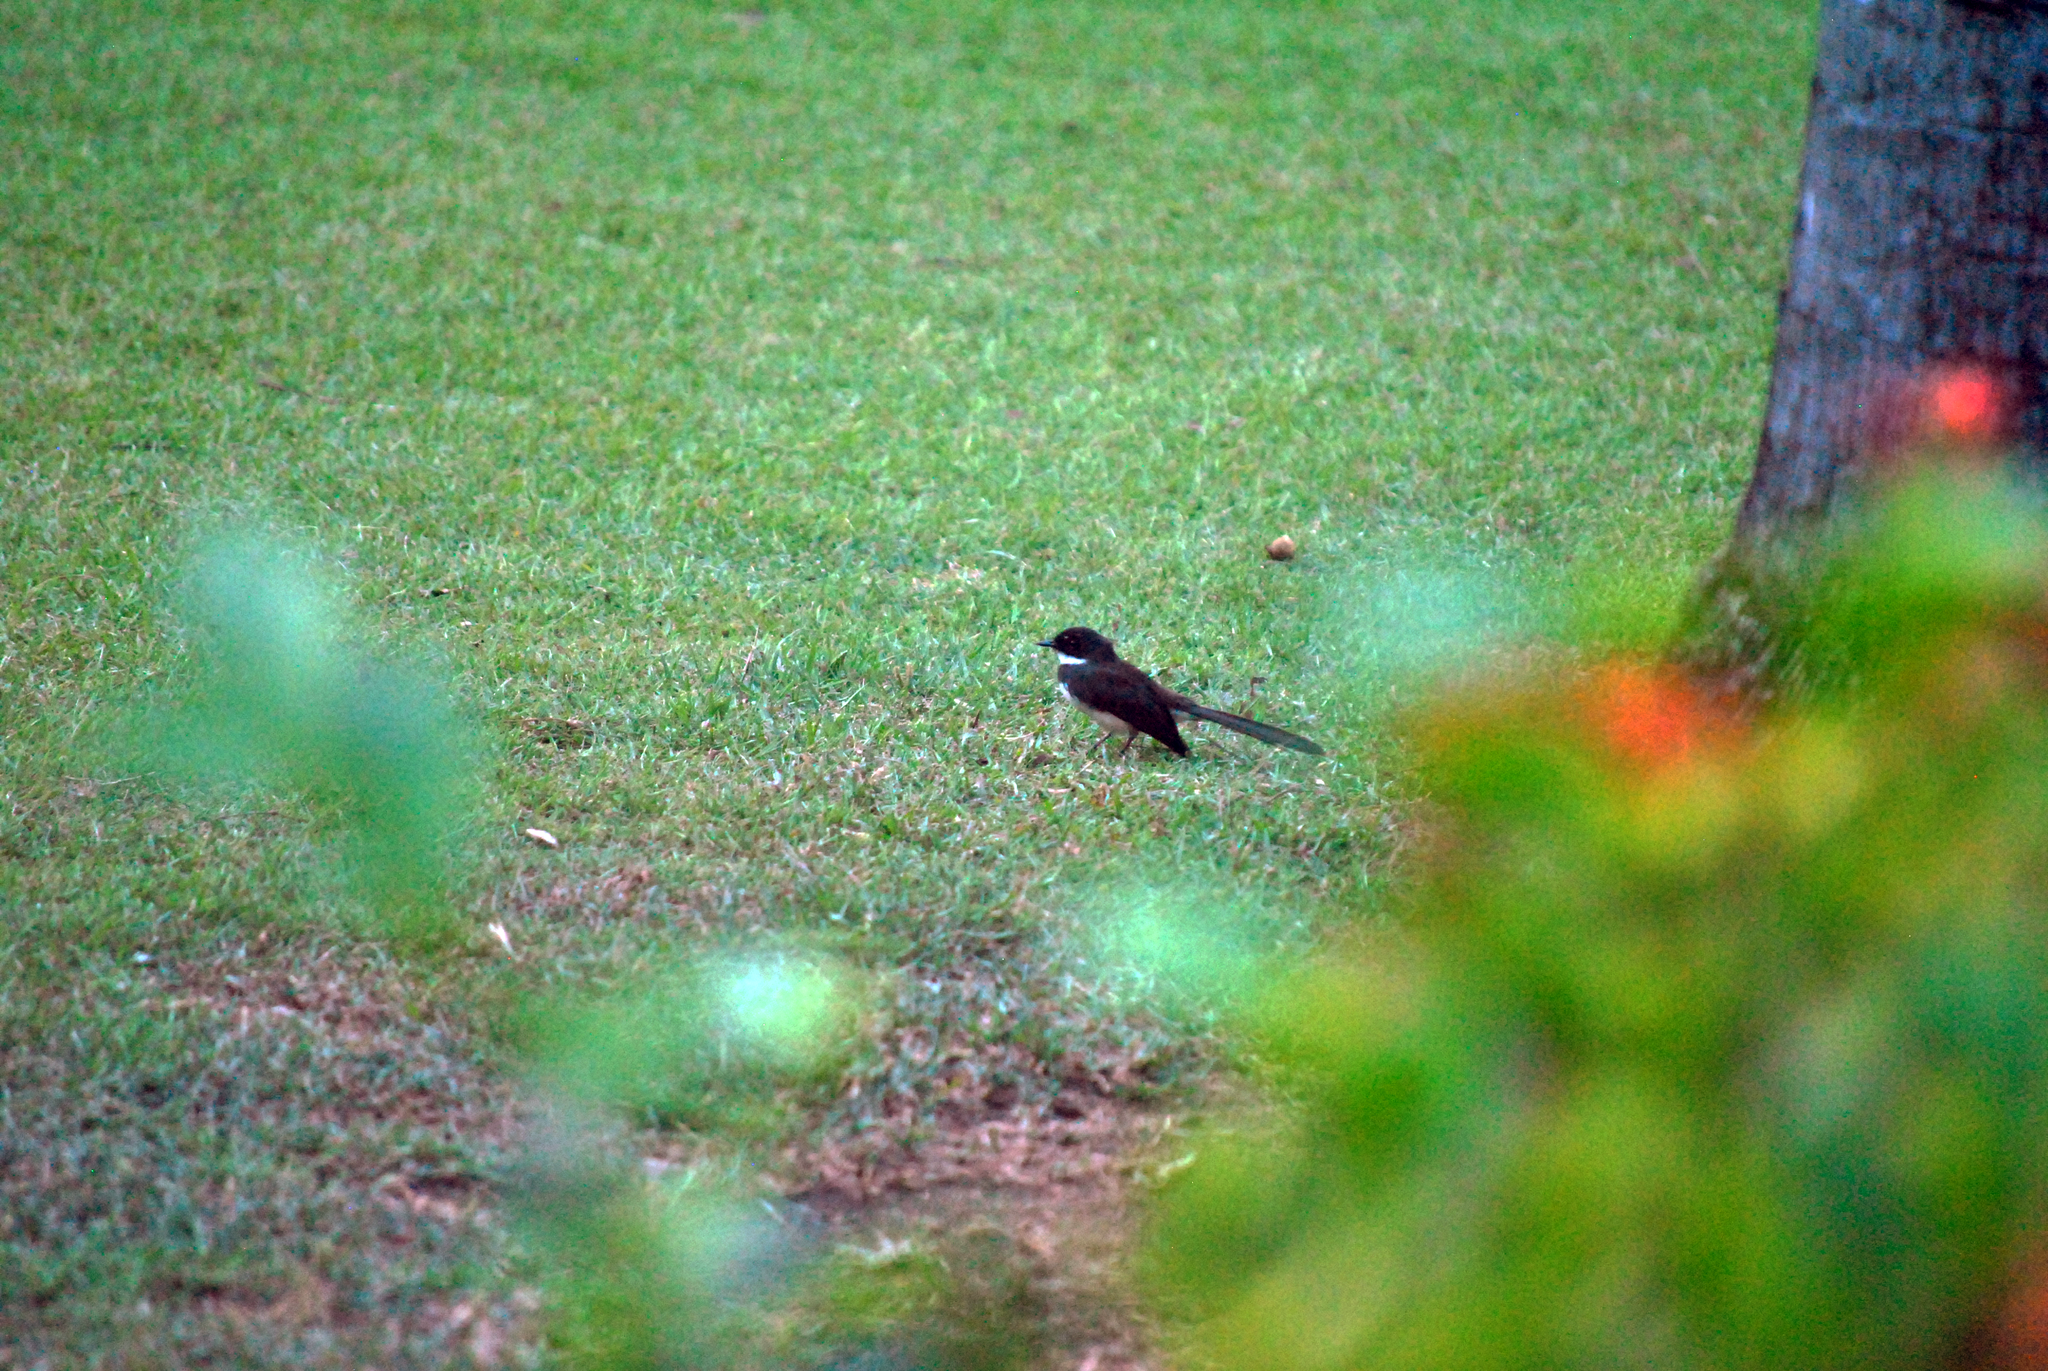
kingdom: Animalia
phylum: Chordata
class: Aves
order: Passeriformes
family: Rhipiduridae
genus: Rhipidura
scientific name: Rhipidura javanica
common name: Pied fantail
